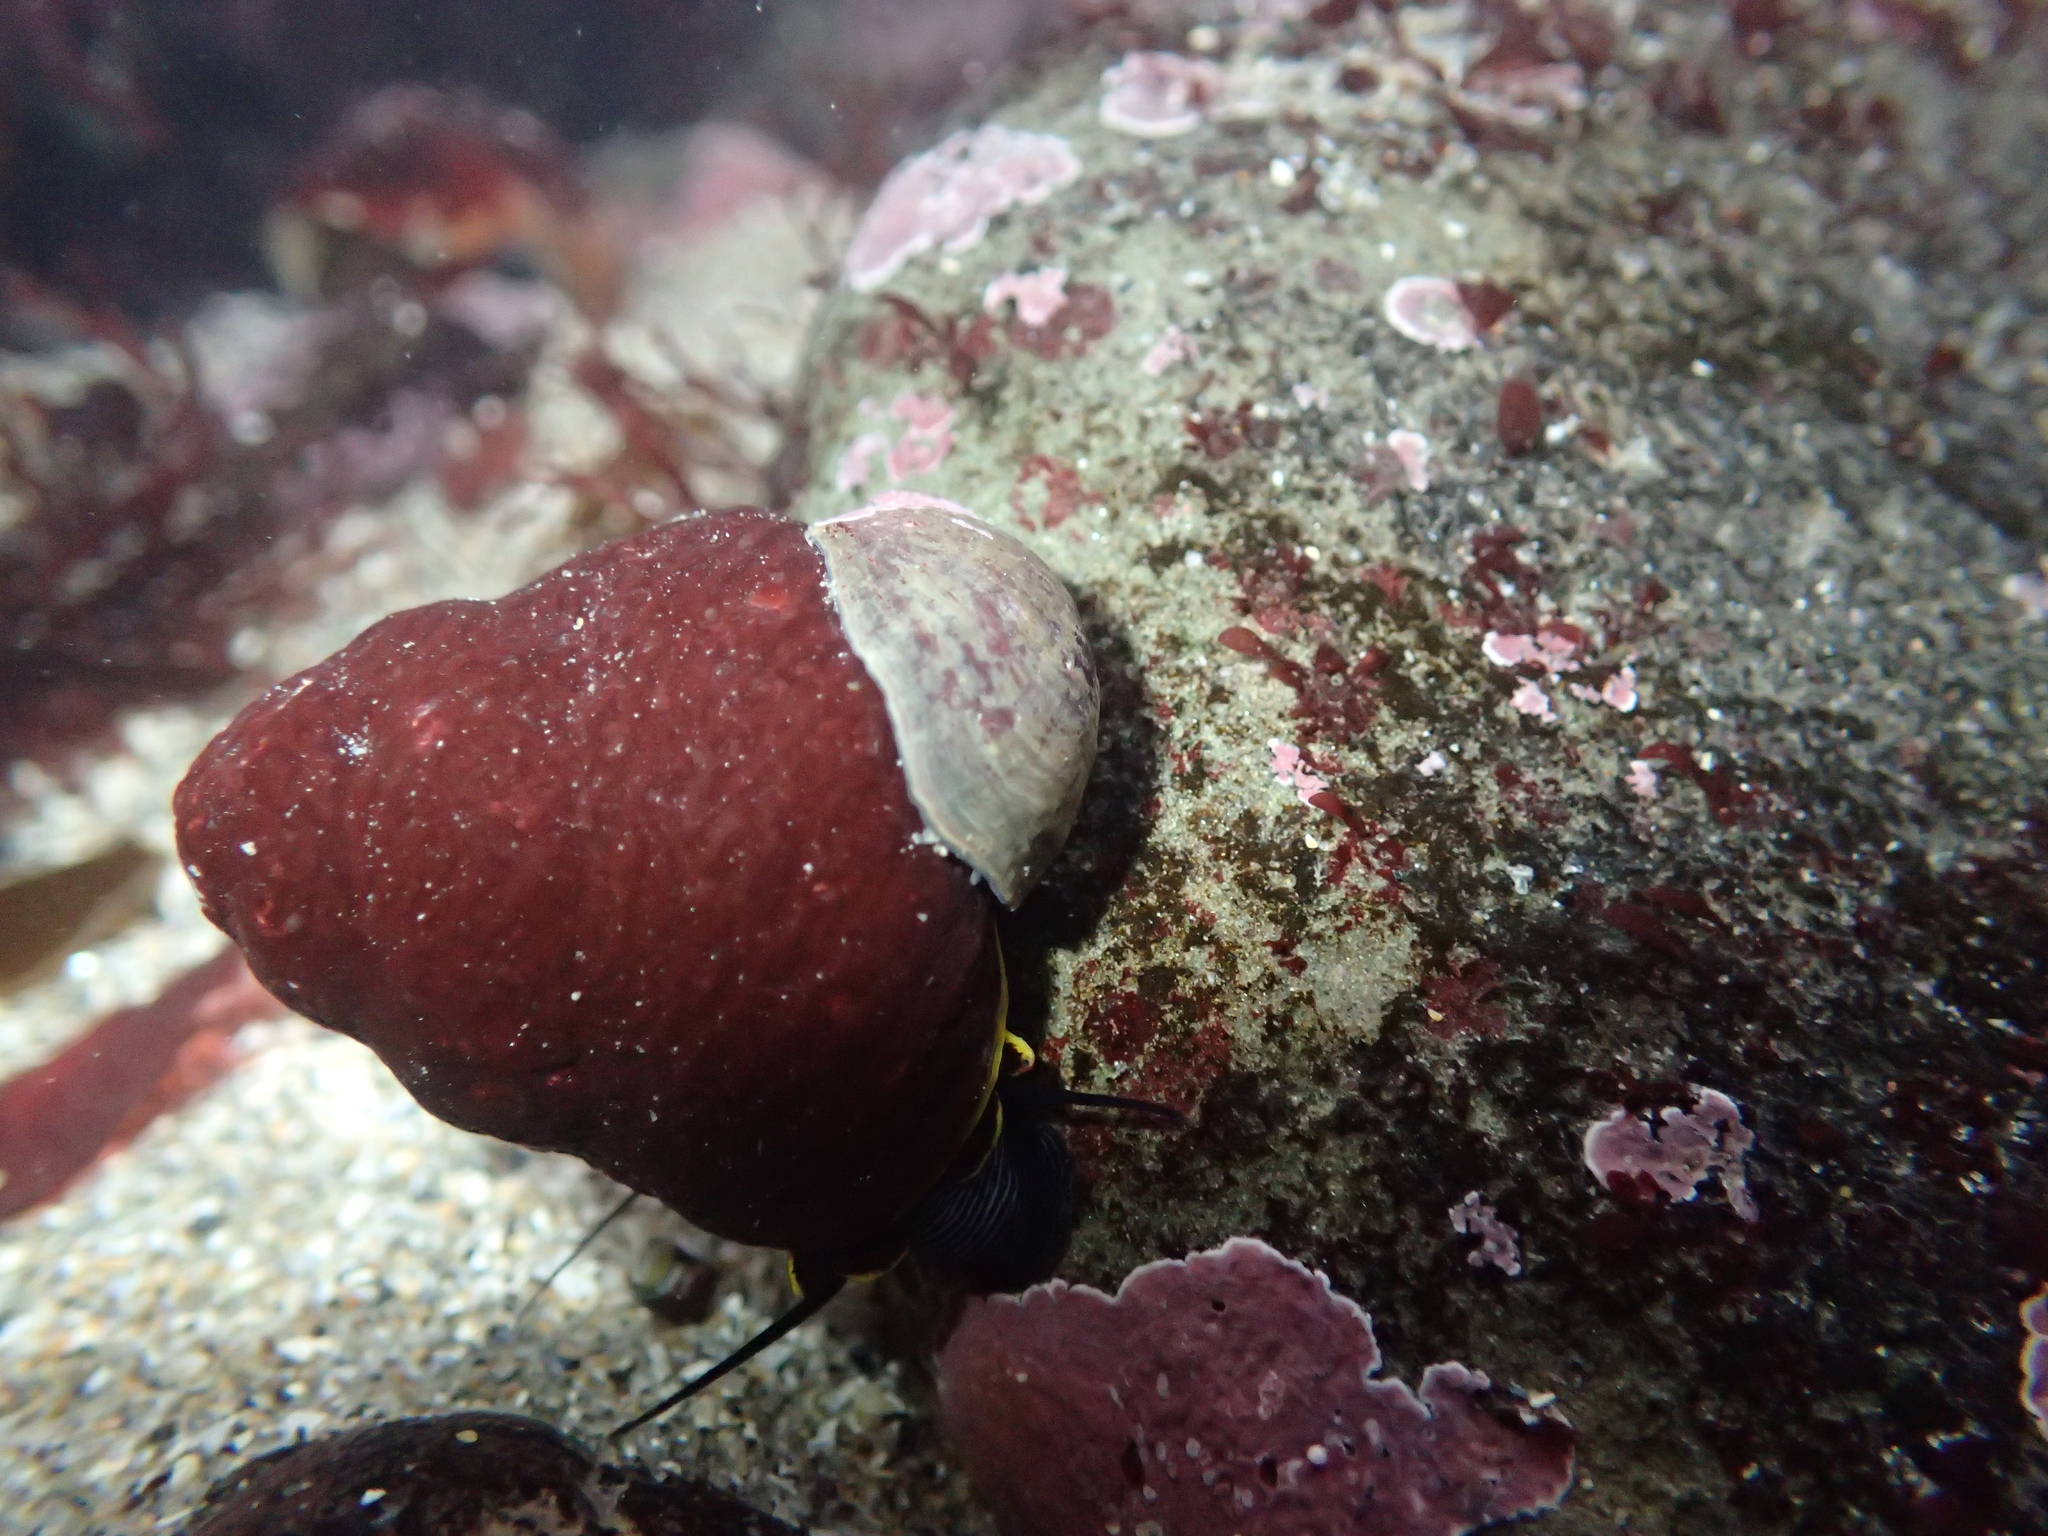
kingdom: Animalia
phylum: Mollusca
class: Gastropoda
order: Trochida
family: Tegulidae
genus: Tegula
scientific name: Tegula brunnea
